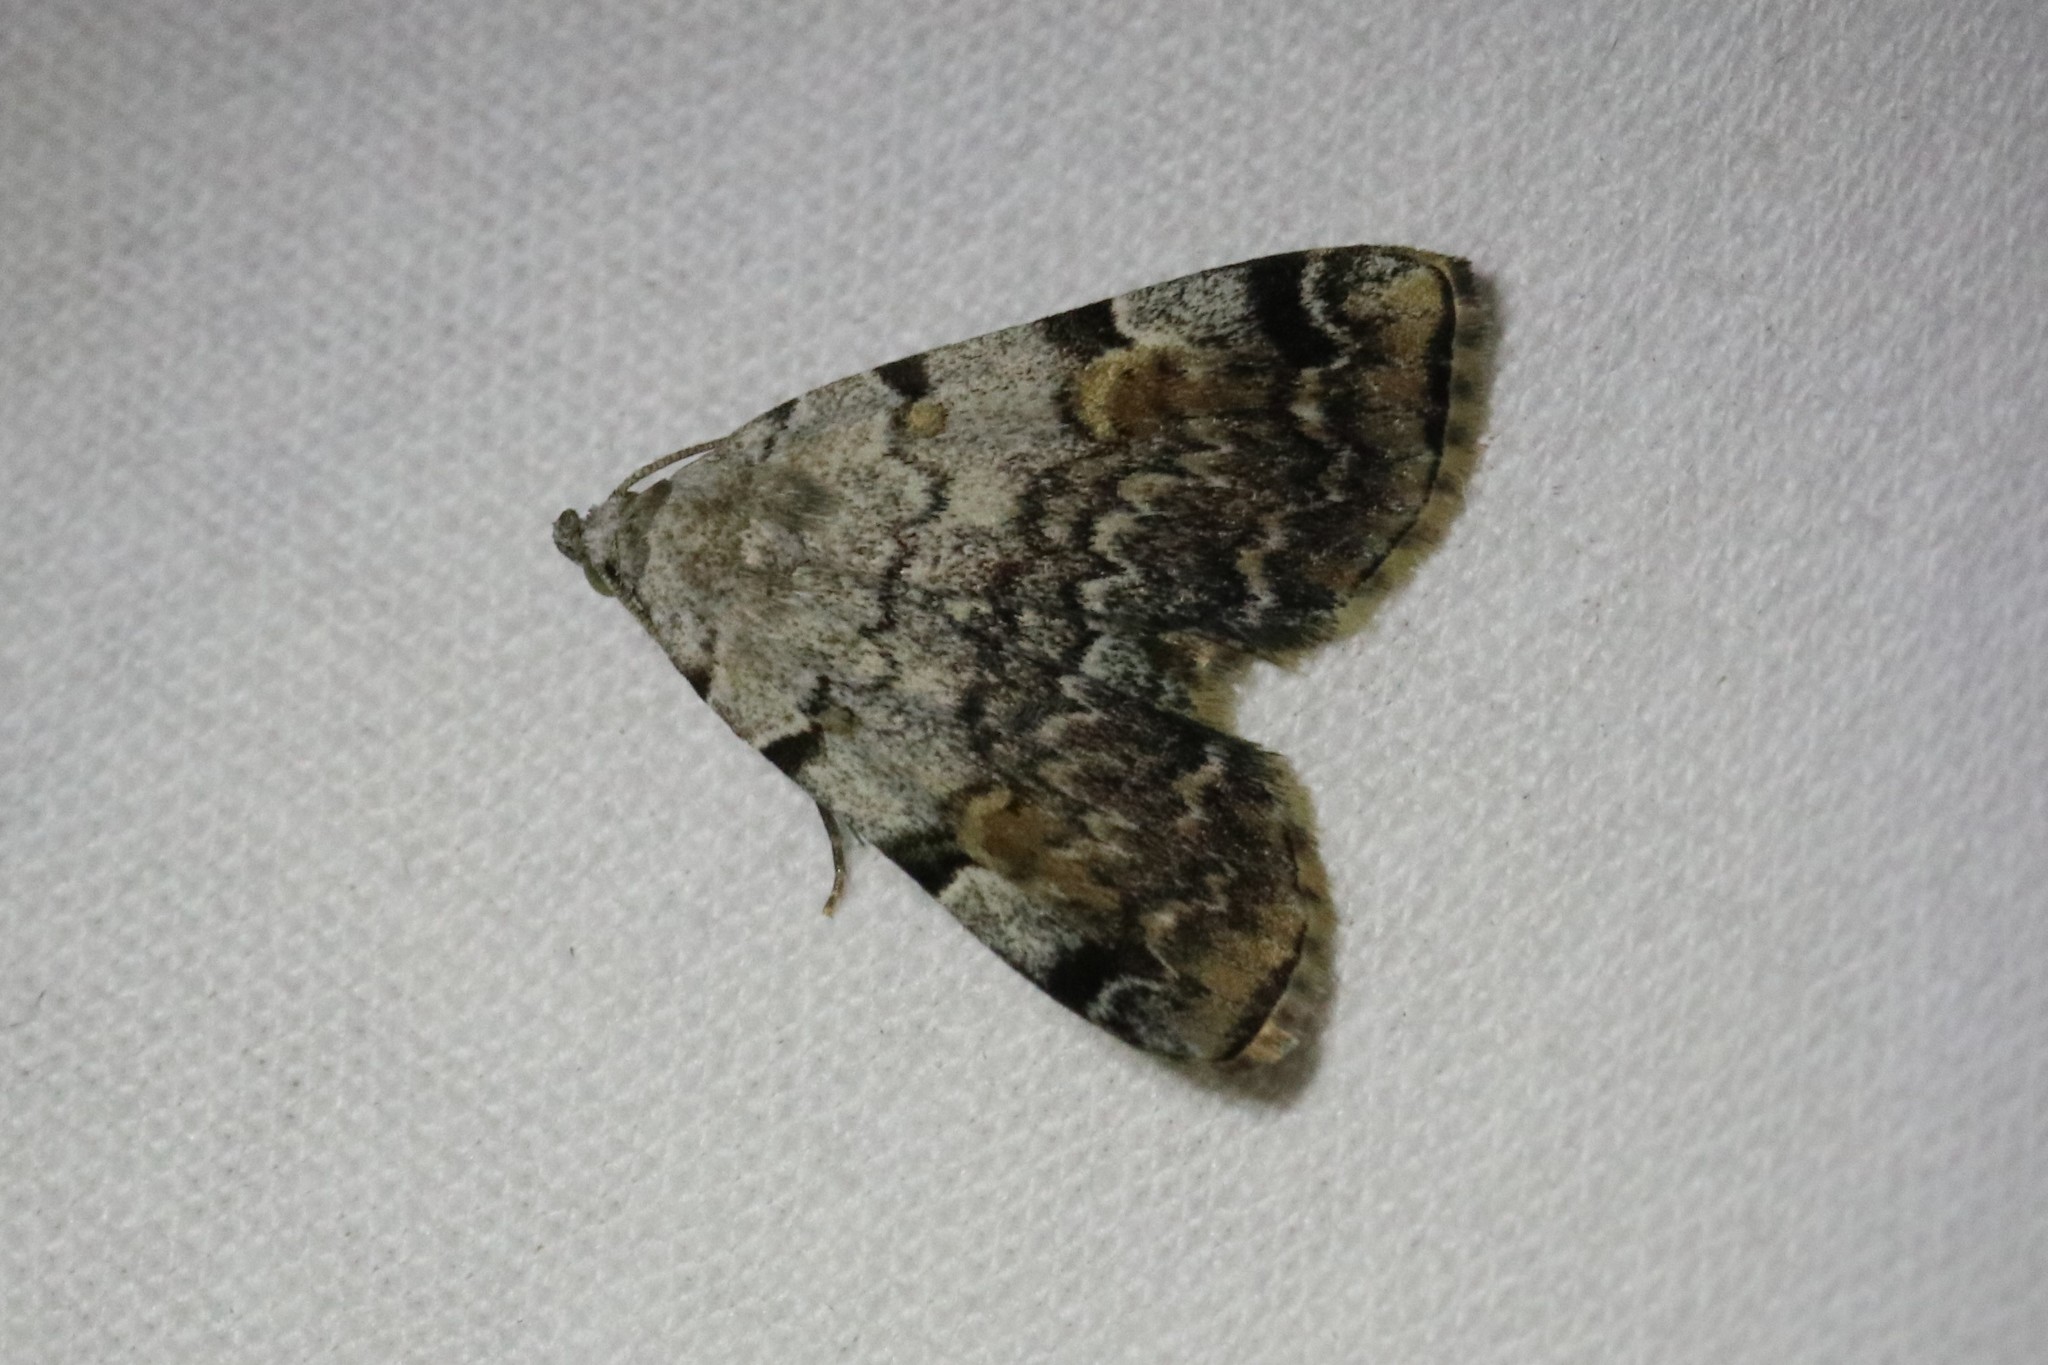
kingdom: Animalia
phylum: Arthropoda
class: Insecta
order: Lepidoptera
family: Erebidae
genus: Idia
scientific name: Idia americalis
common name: American idia moth
